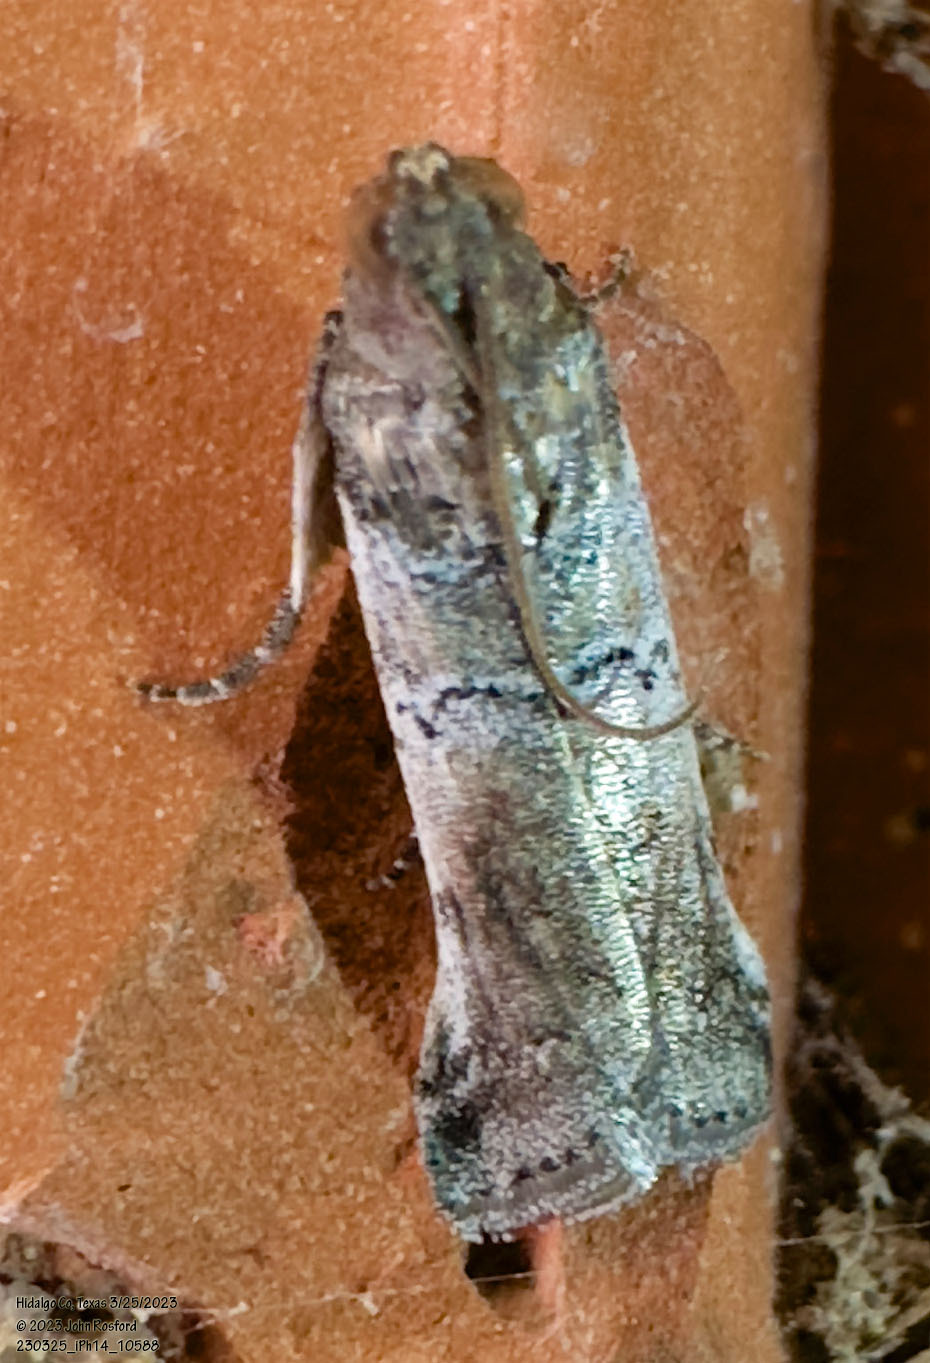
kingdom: Animalia
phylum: Arthropoda
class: Insecta
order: Lepidoptera
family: Pyralidae
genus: Chararica
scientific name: Chararica hystriculella
